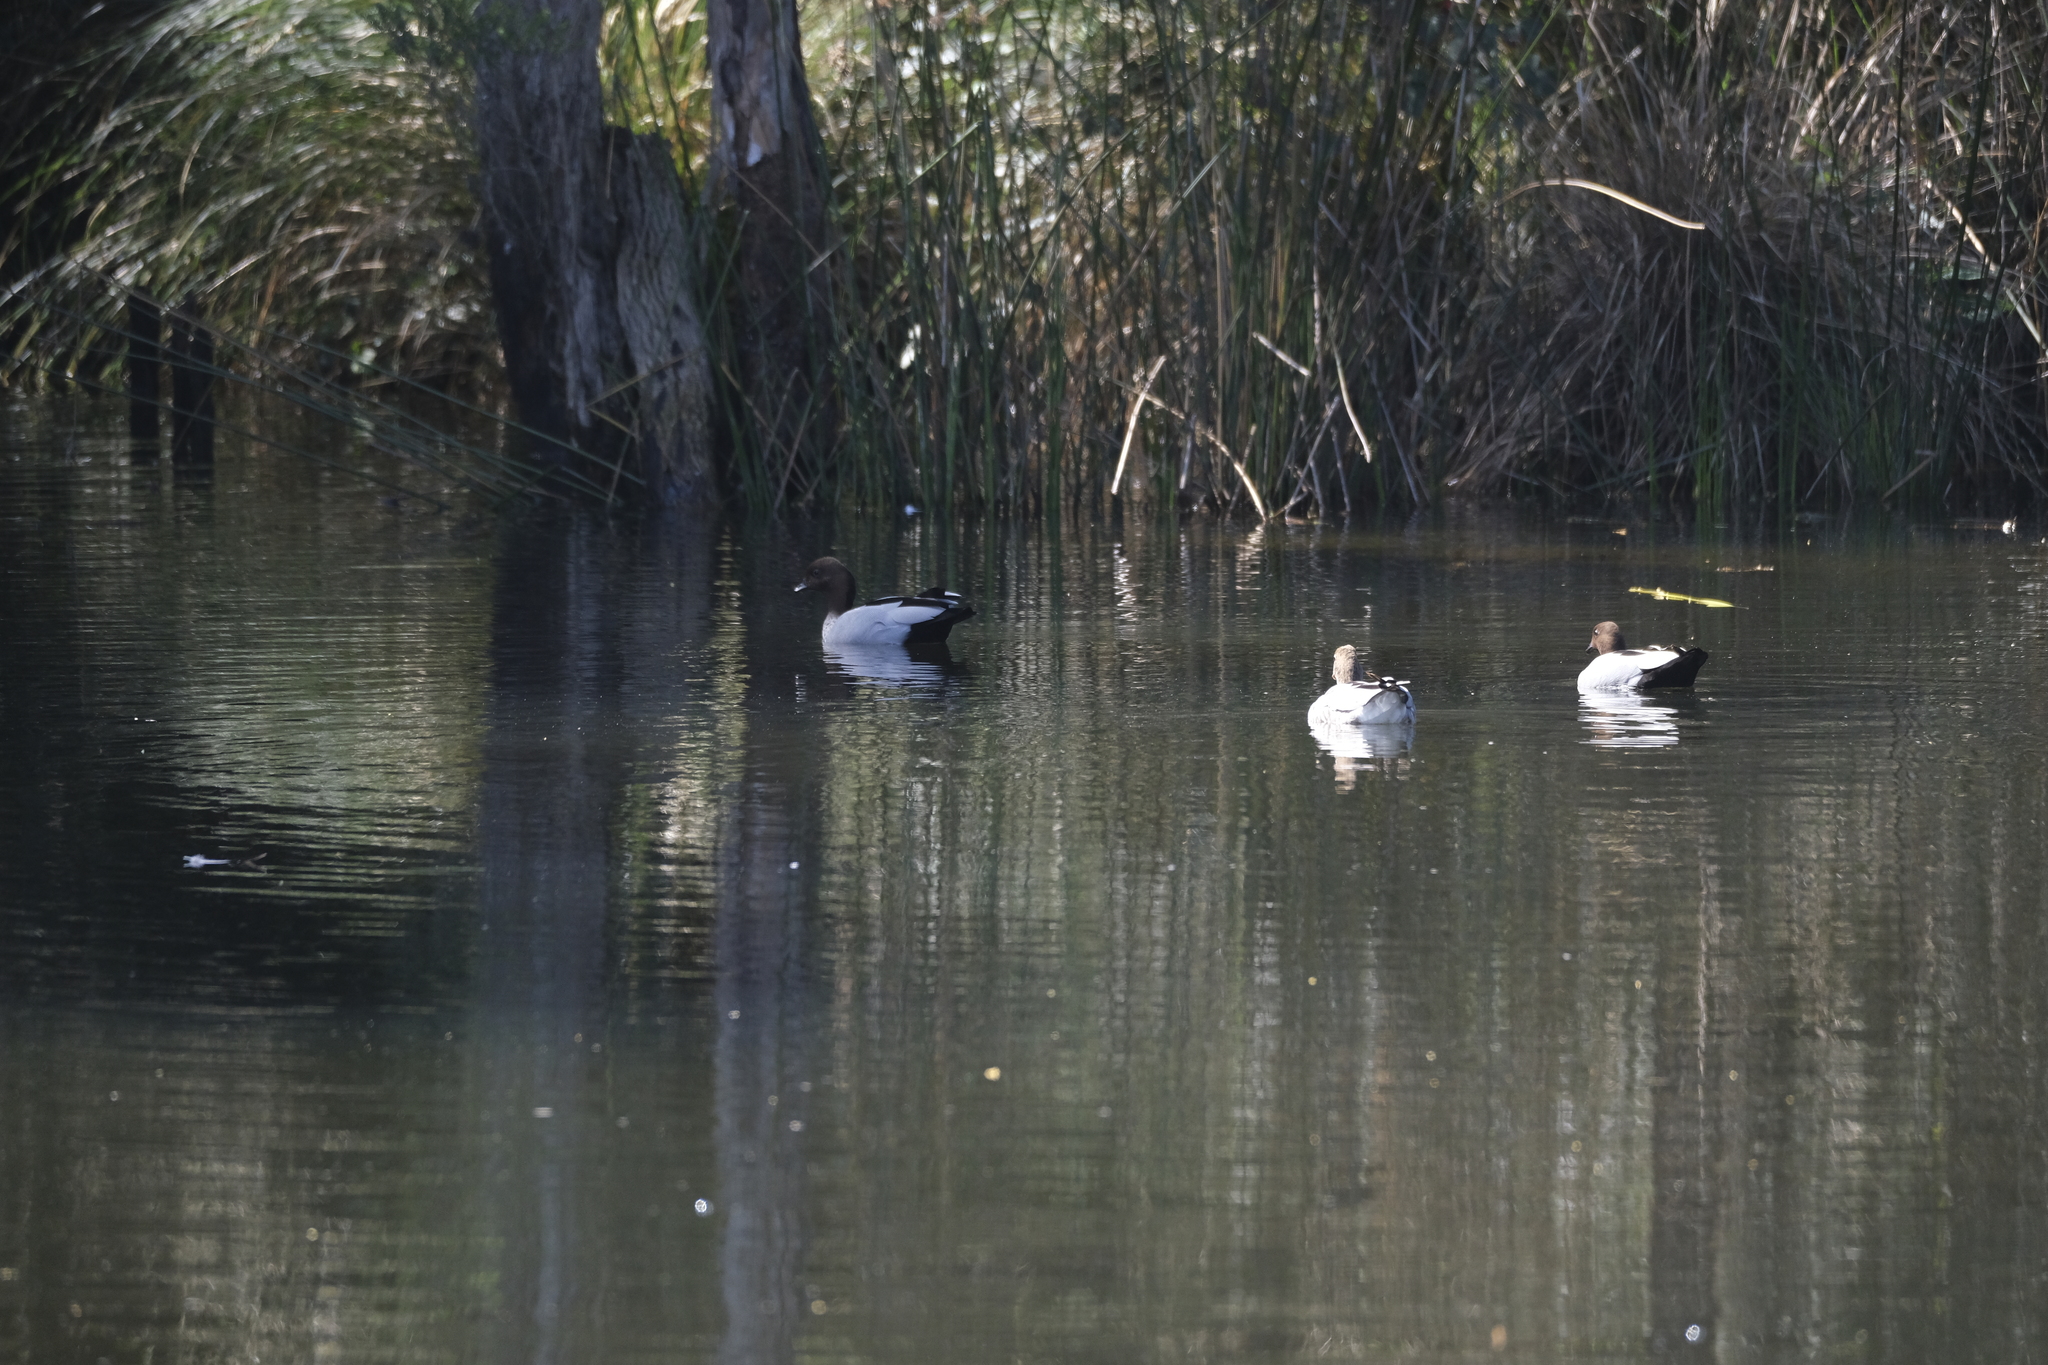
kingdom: Animalia
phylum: Chordata
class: Aves
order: Anseriformes
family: Anatidae
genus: Chenonetta
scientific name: Chenonetta jubata
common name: Maned duck
